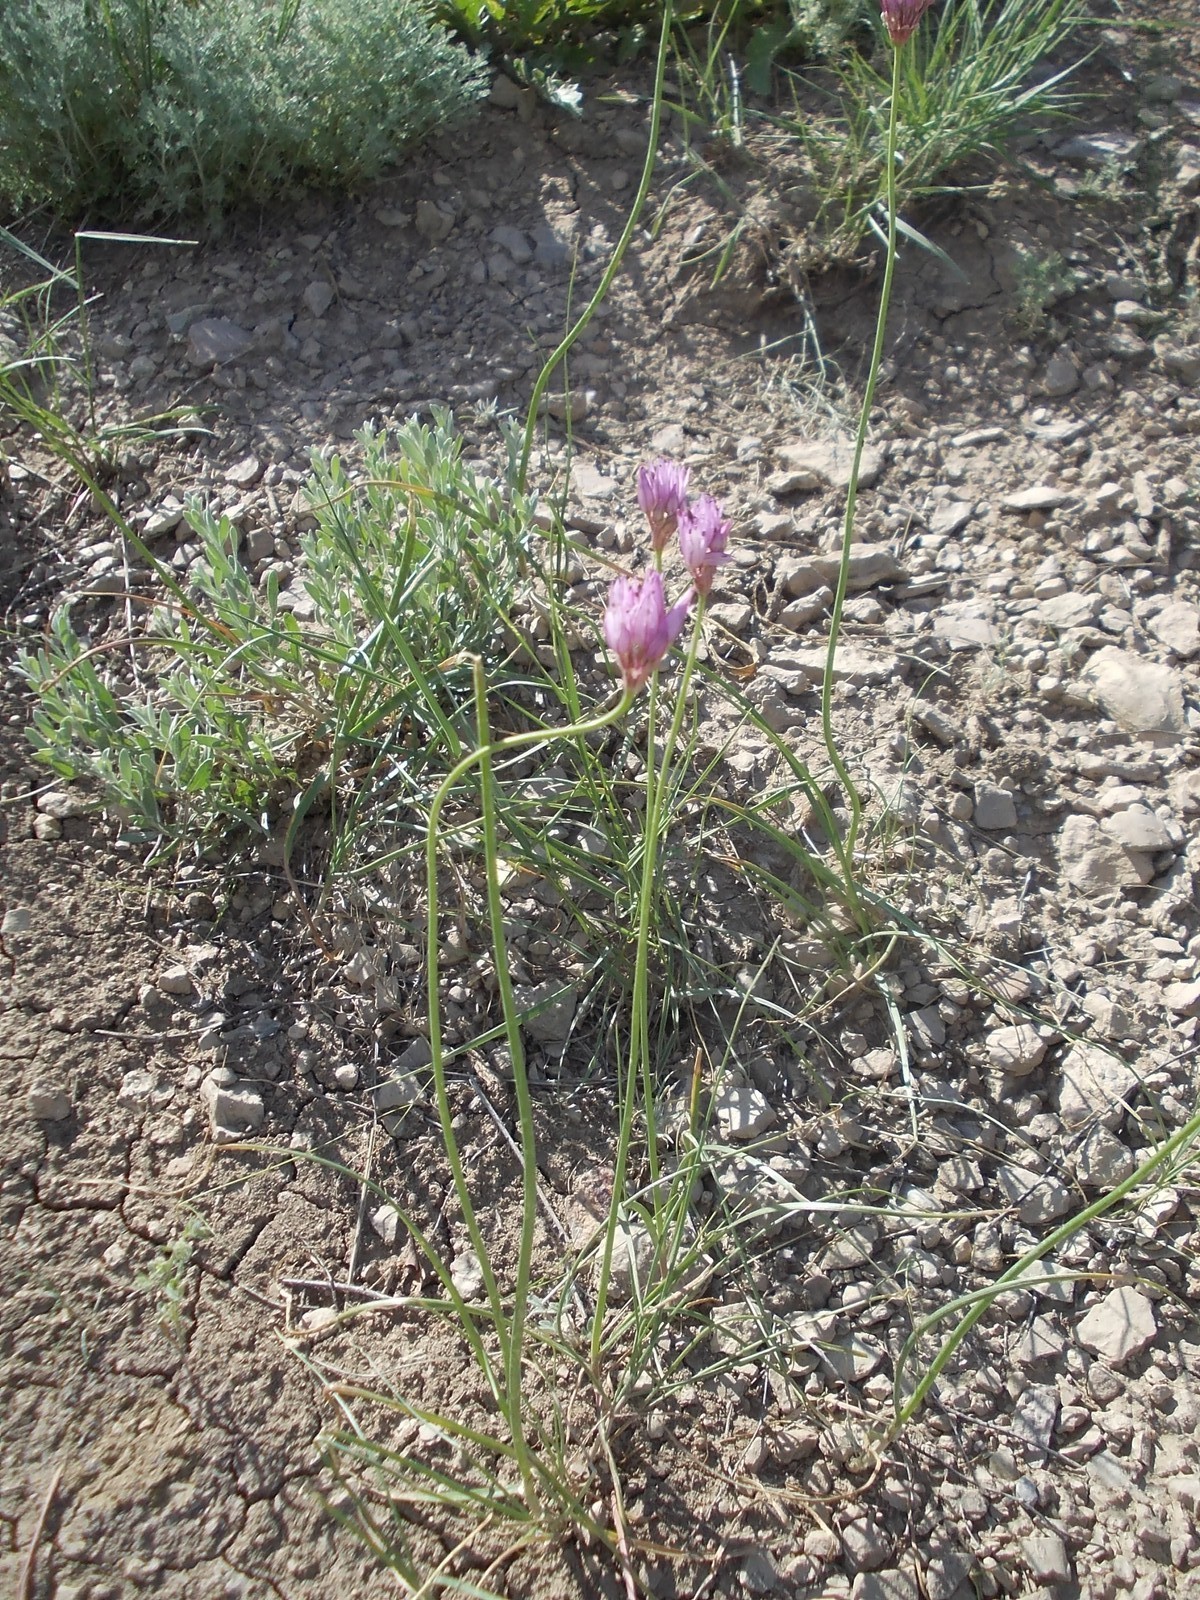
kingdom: Plantae
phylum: Tracheophyta
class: Liliopsida
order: Asparagales
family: Amaryllidaceae
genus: Allium
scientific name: Allium inderiense
